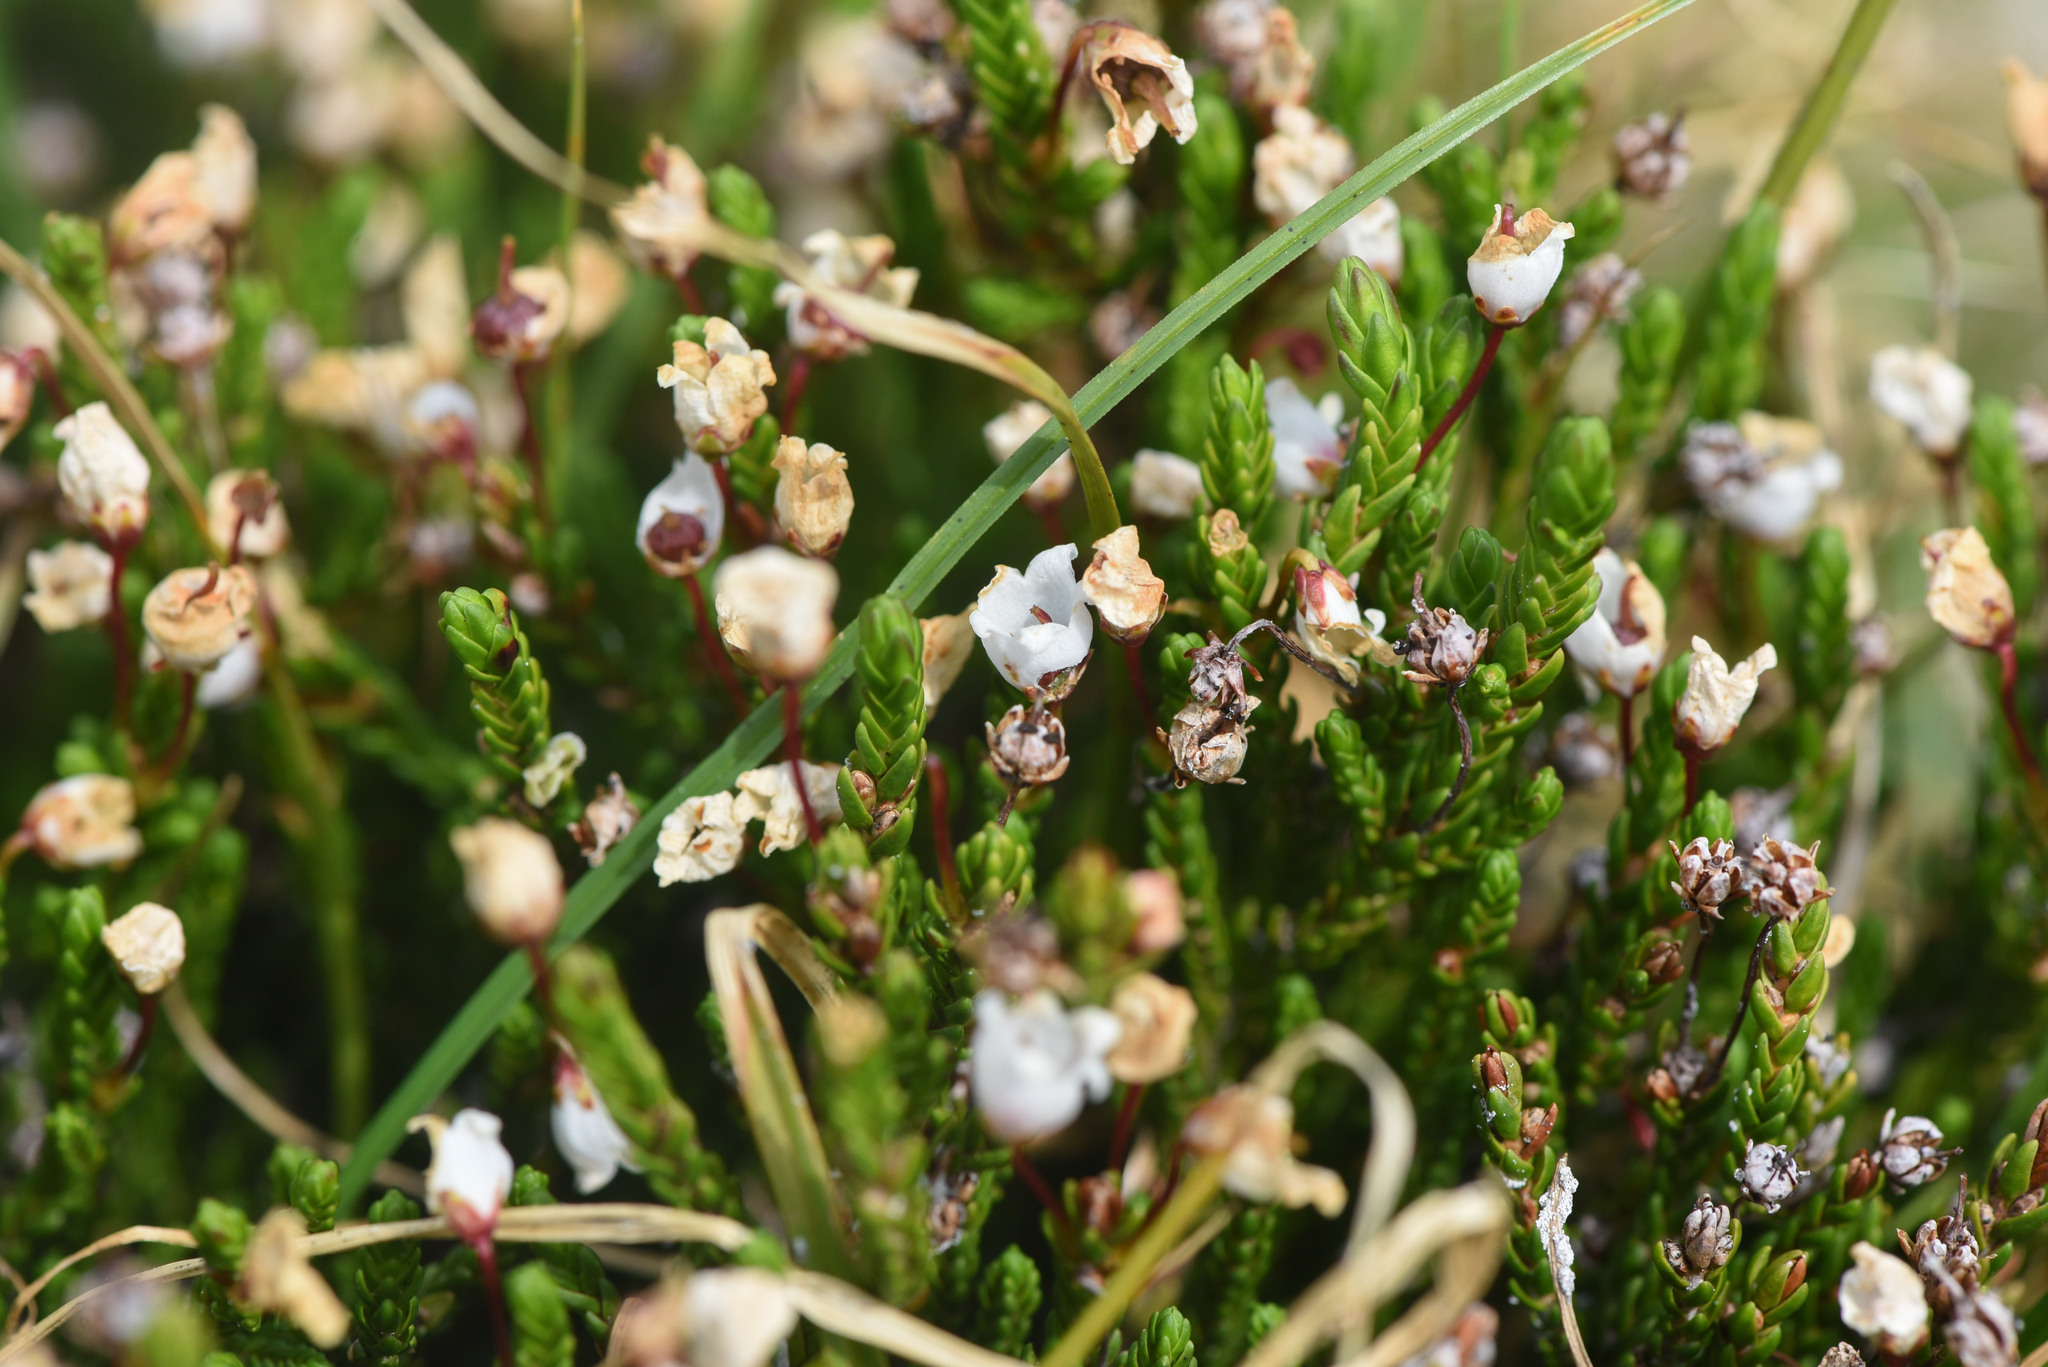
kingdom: Plantae
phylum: Tracheophyta
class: Magnoliopsida
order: Ericales
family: Ericaceae
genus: Cassiope
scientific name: Cassiope mertensiana
